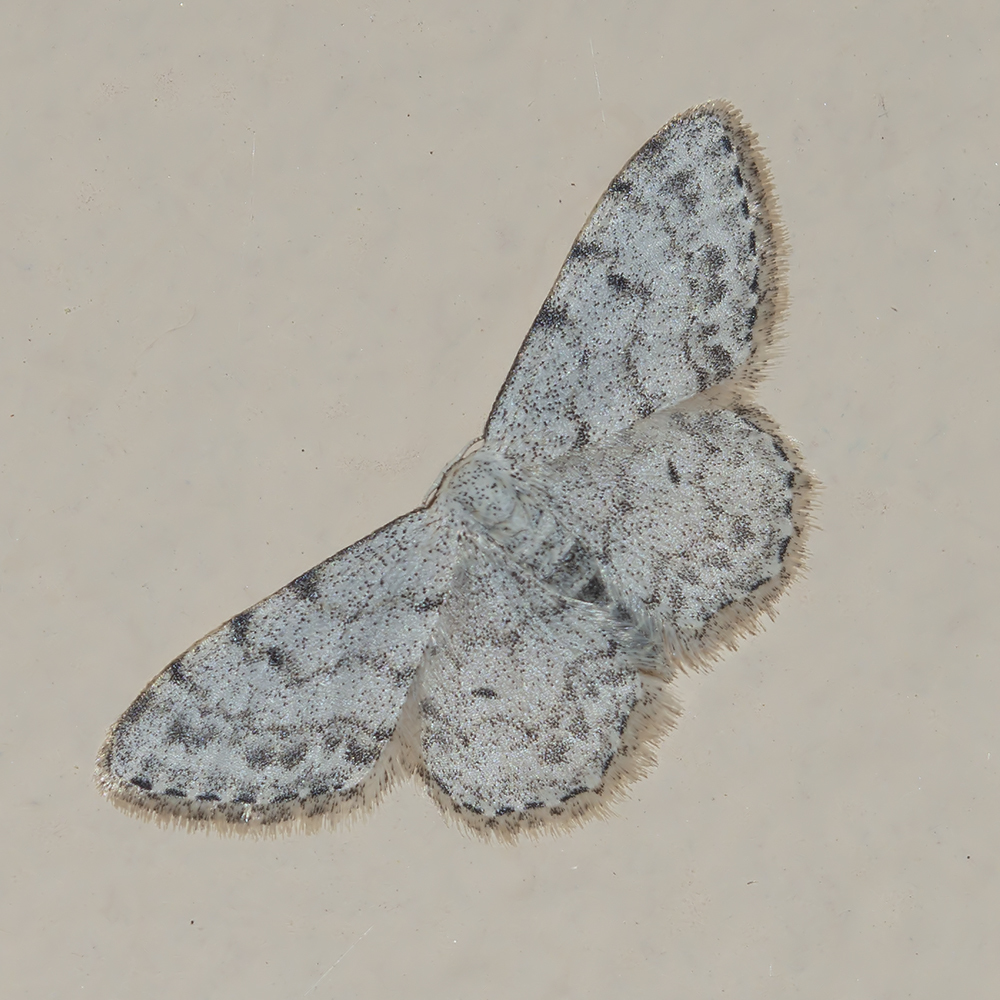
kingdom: Animalia
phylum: Arthropoda
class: Insecta
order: Lepidoptera
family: Geometridae
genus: Idaea
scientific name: Idaea camparia
